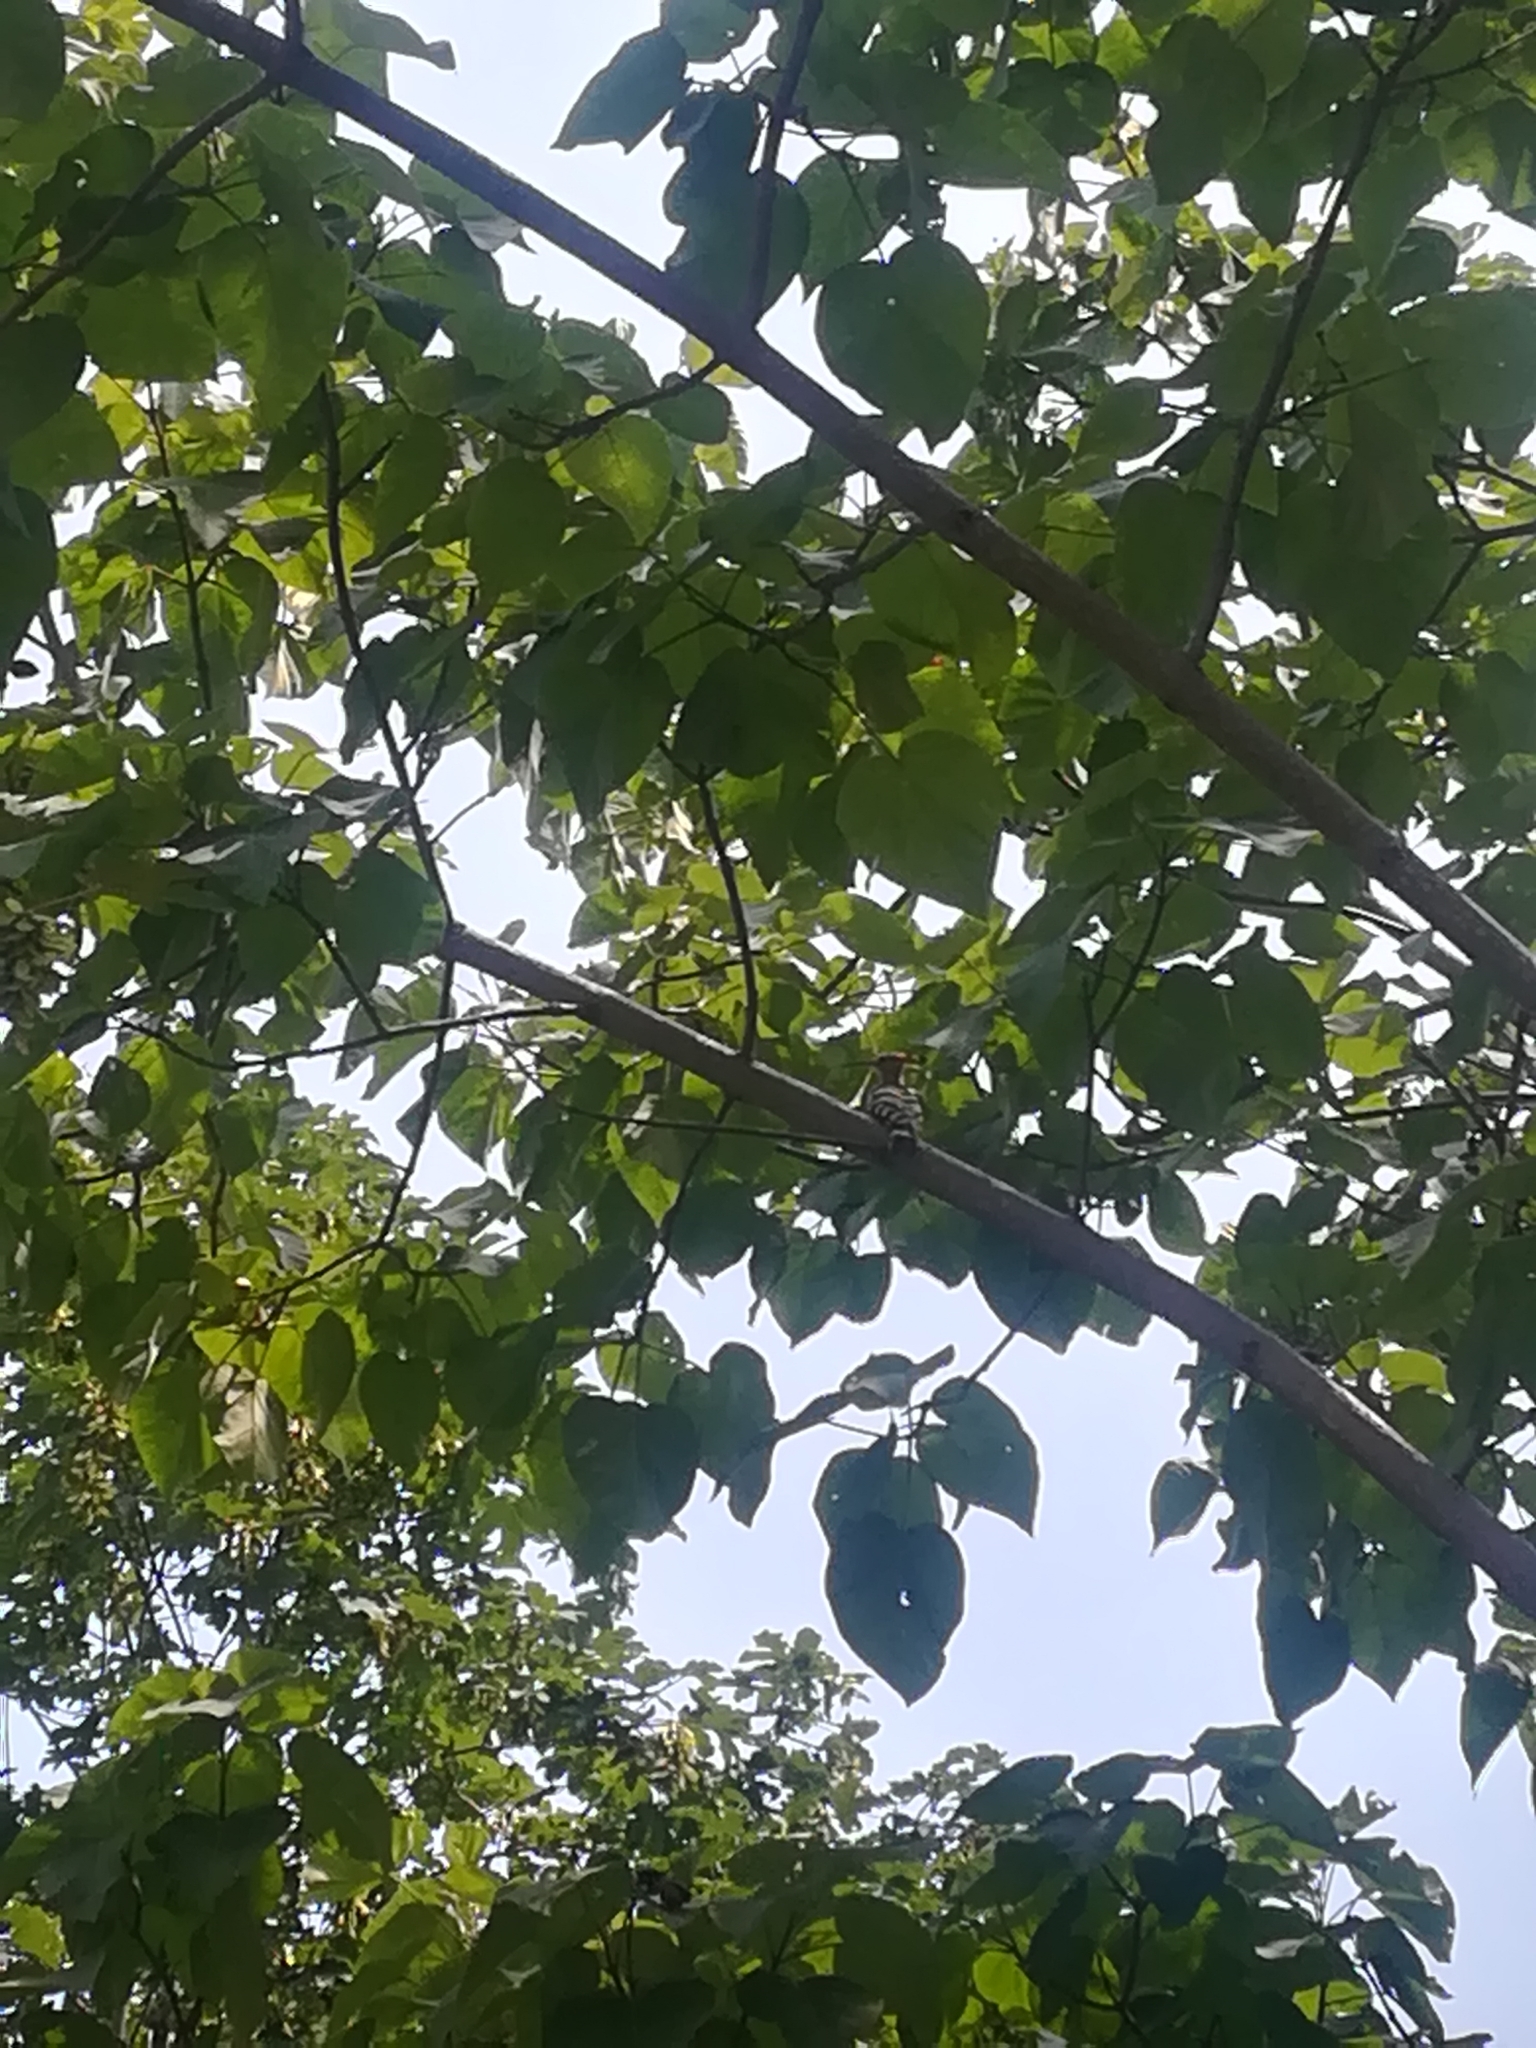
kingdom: Animalia
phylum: Chordata
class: Aves
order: Bucerotiformes
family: Upupidae
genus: Upupa
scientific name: Upupa epops
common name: Eurasian hoopoe
